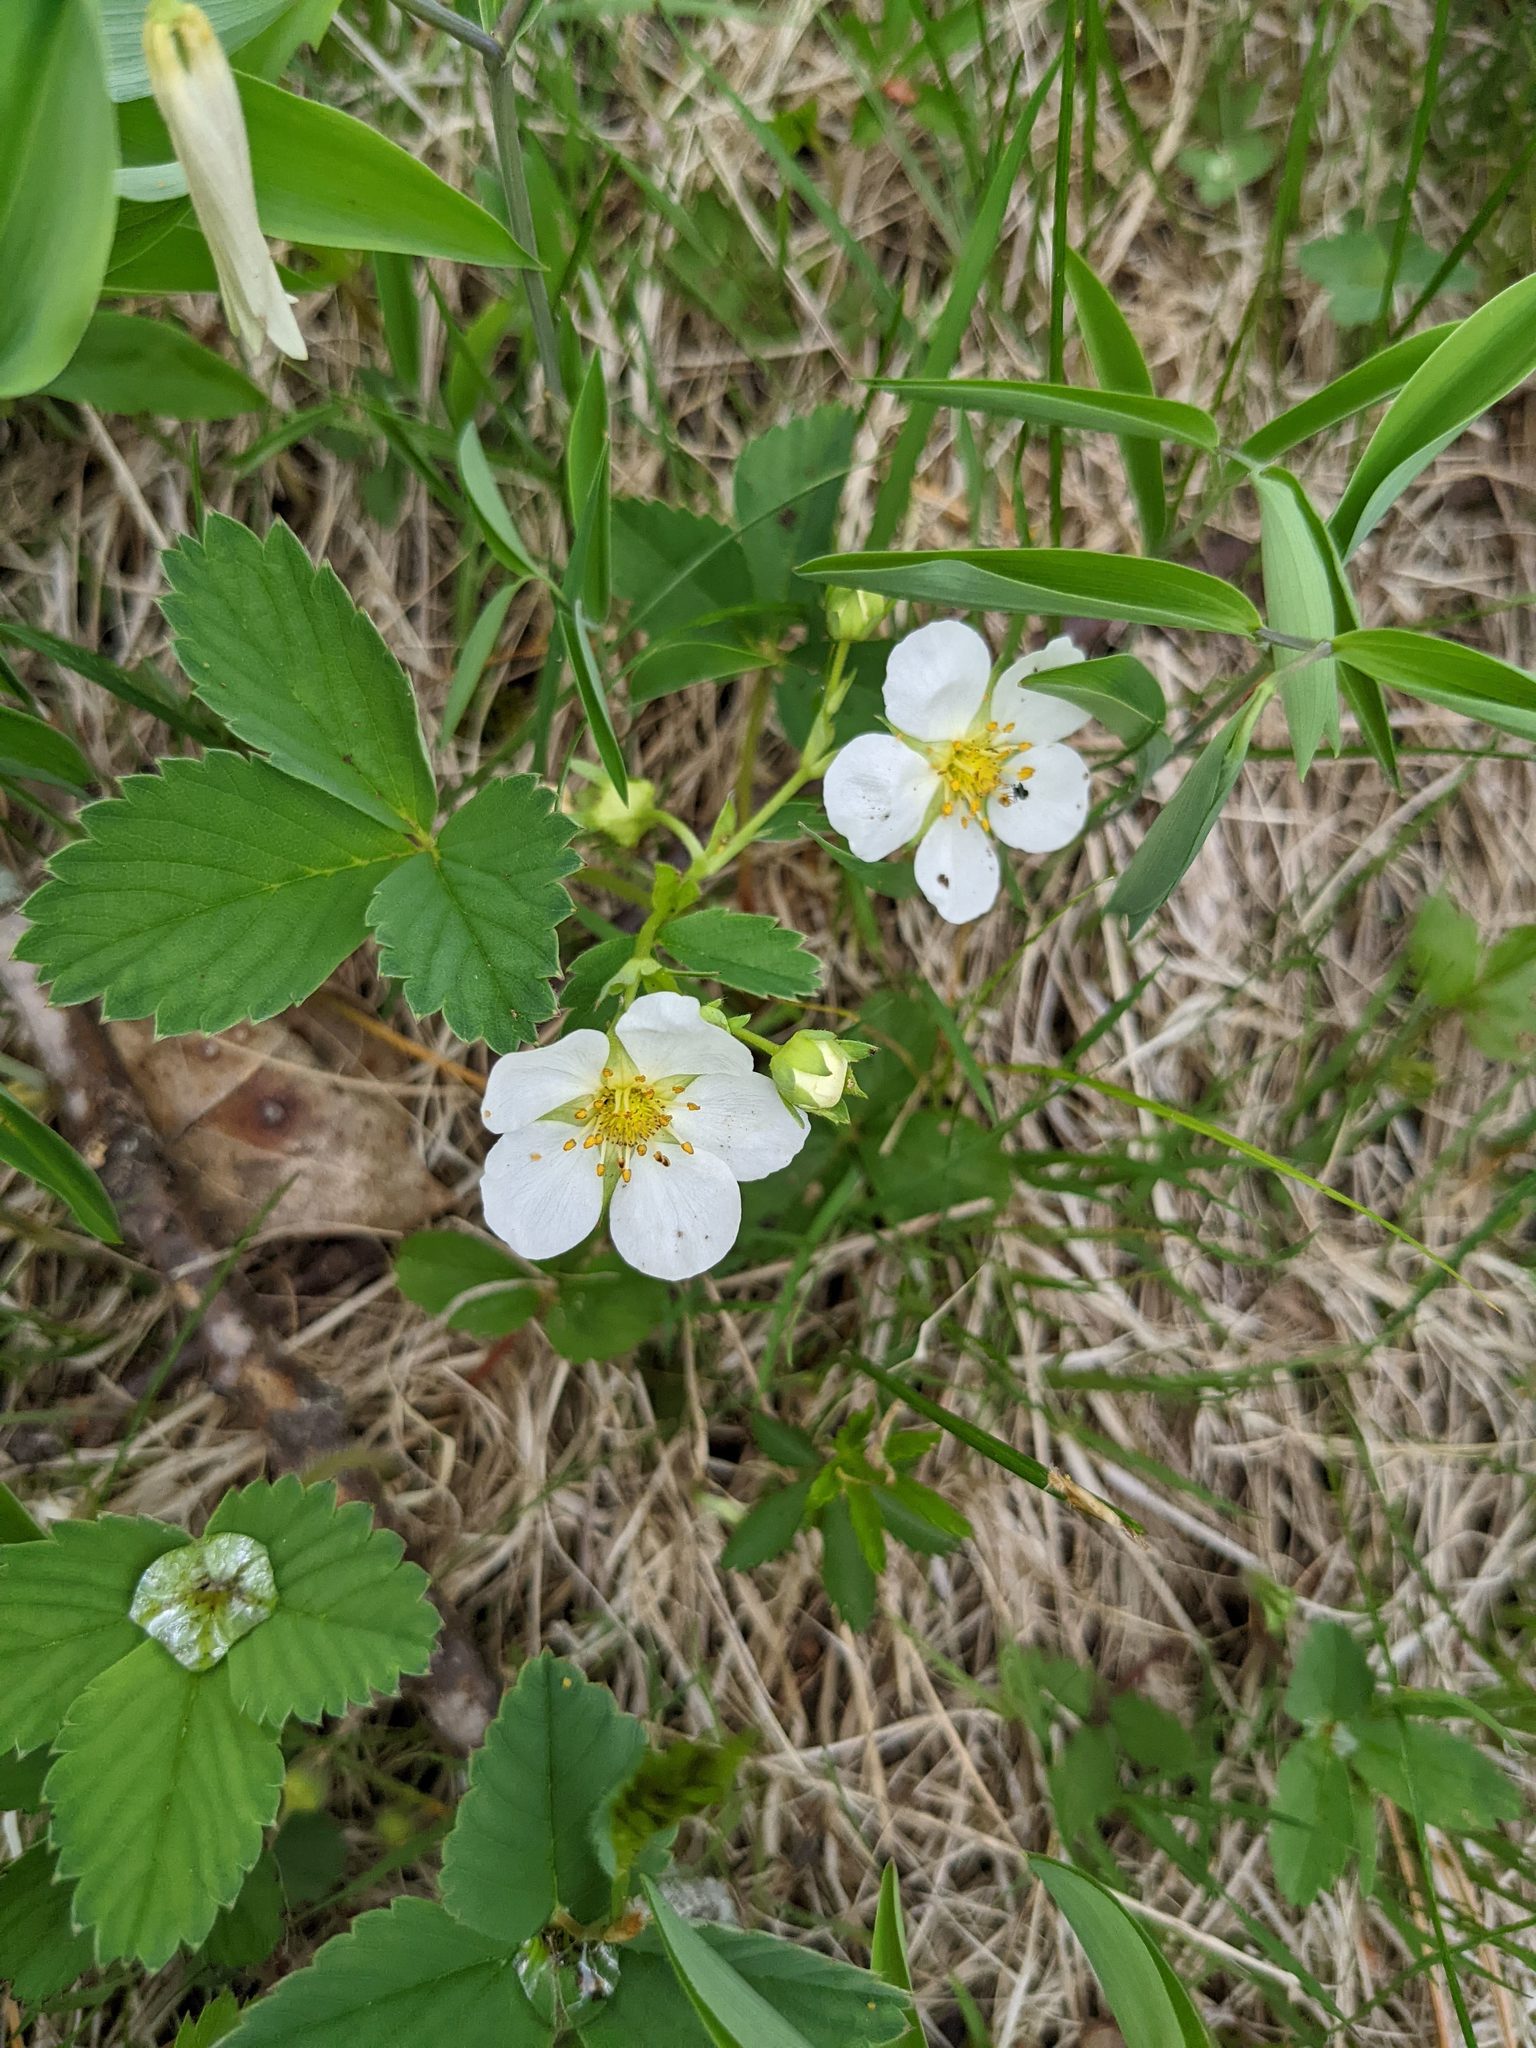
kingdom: Plantae
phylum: Tracheophyta
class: Magnoliopsida
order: Rosales
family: Rosaceae
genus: Fragaria
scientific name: Fragaria virginiana
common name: Thickleaved wild strawberry
